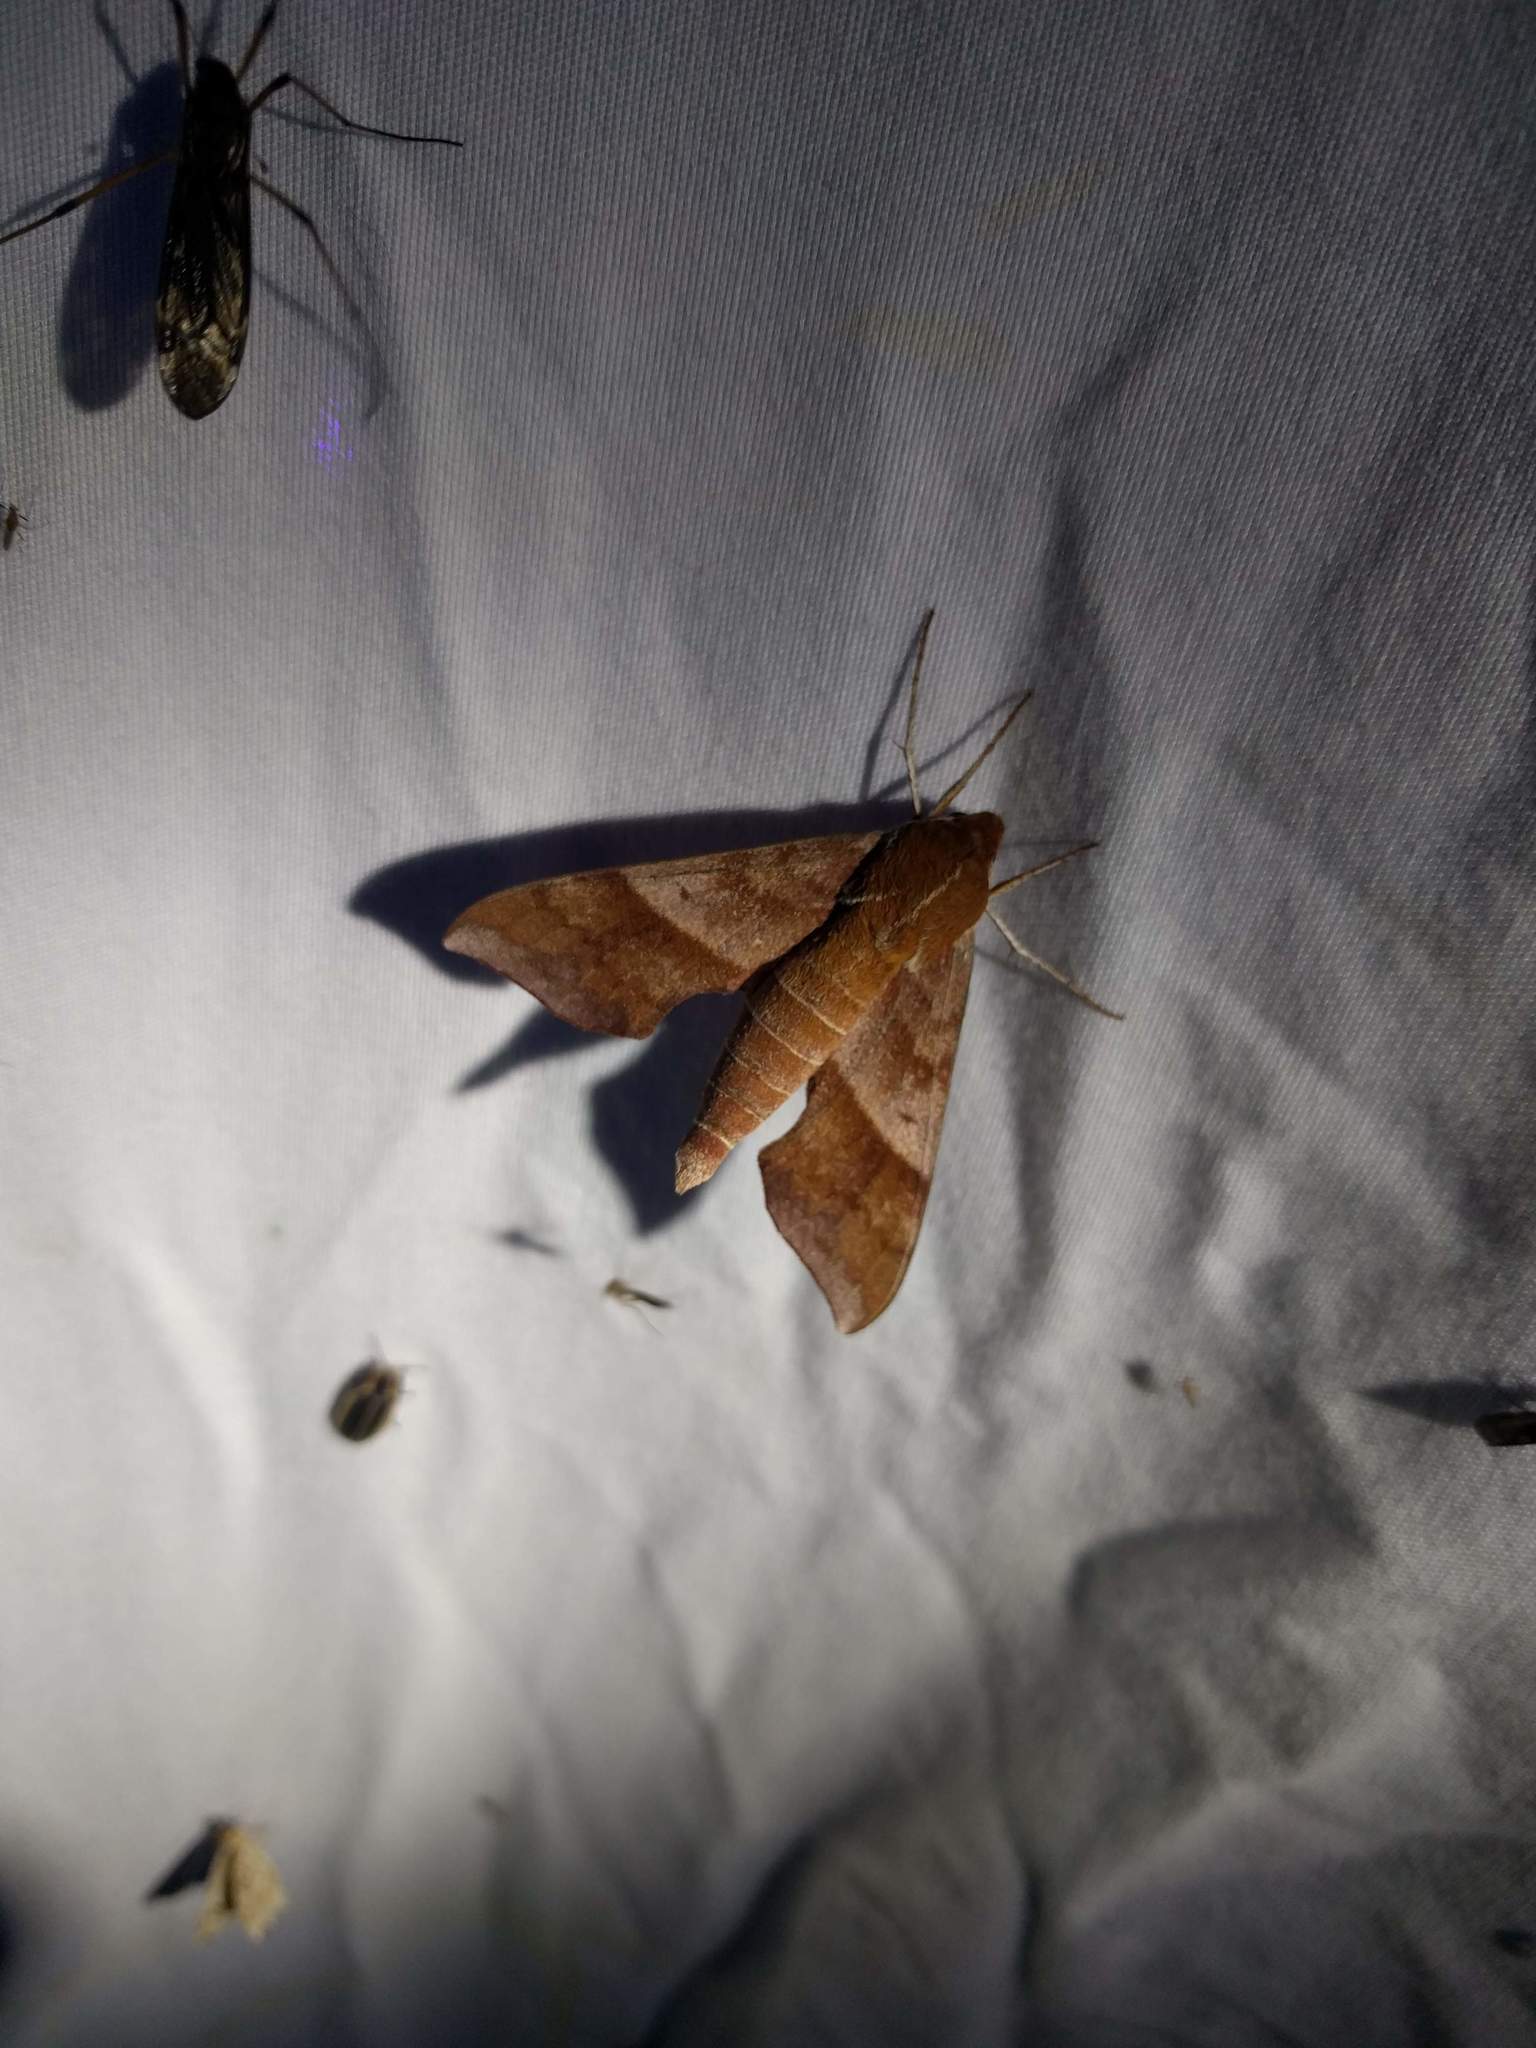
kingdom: Animalia
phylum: Arthropoda
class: Insecta
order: Lepidoptera
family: Sphingidae
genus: Darapsa
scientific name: Darapsa choerilus
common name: Azalea sphinx
